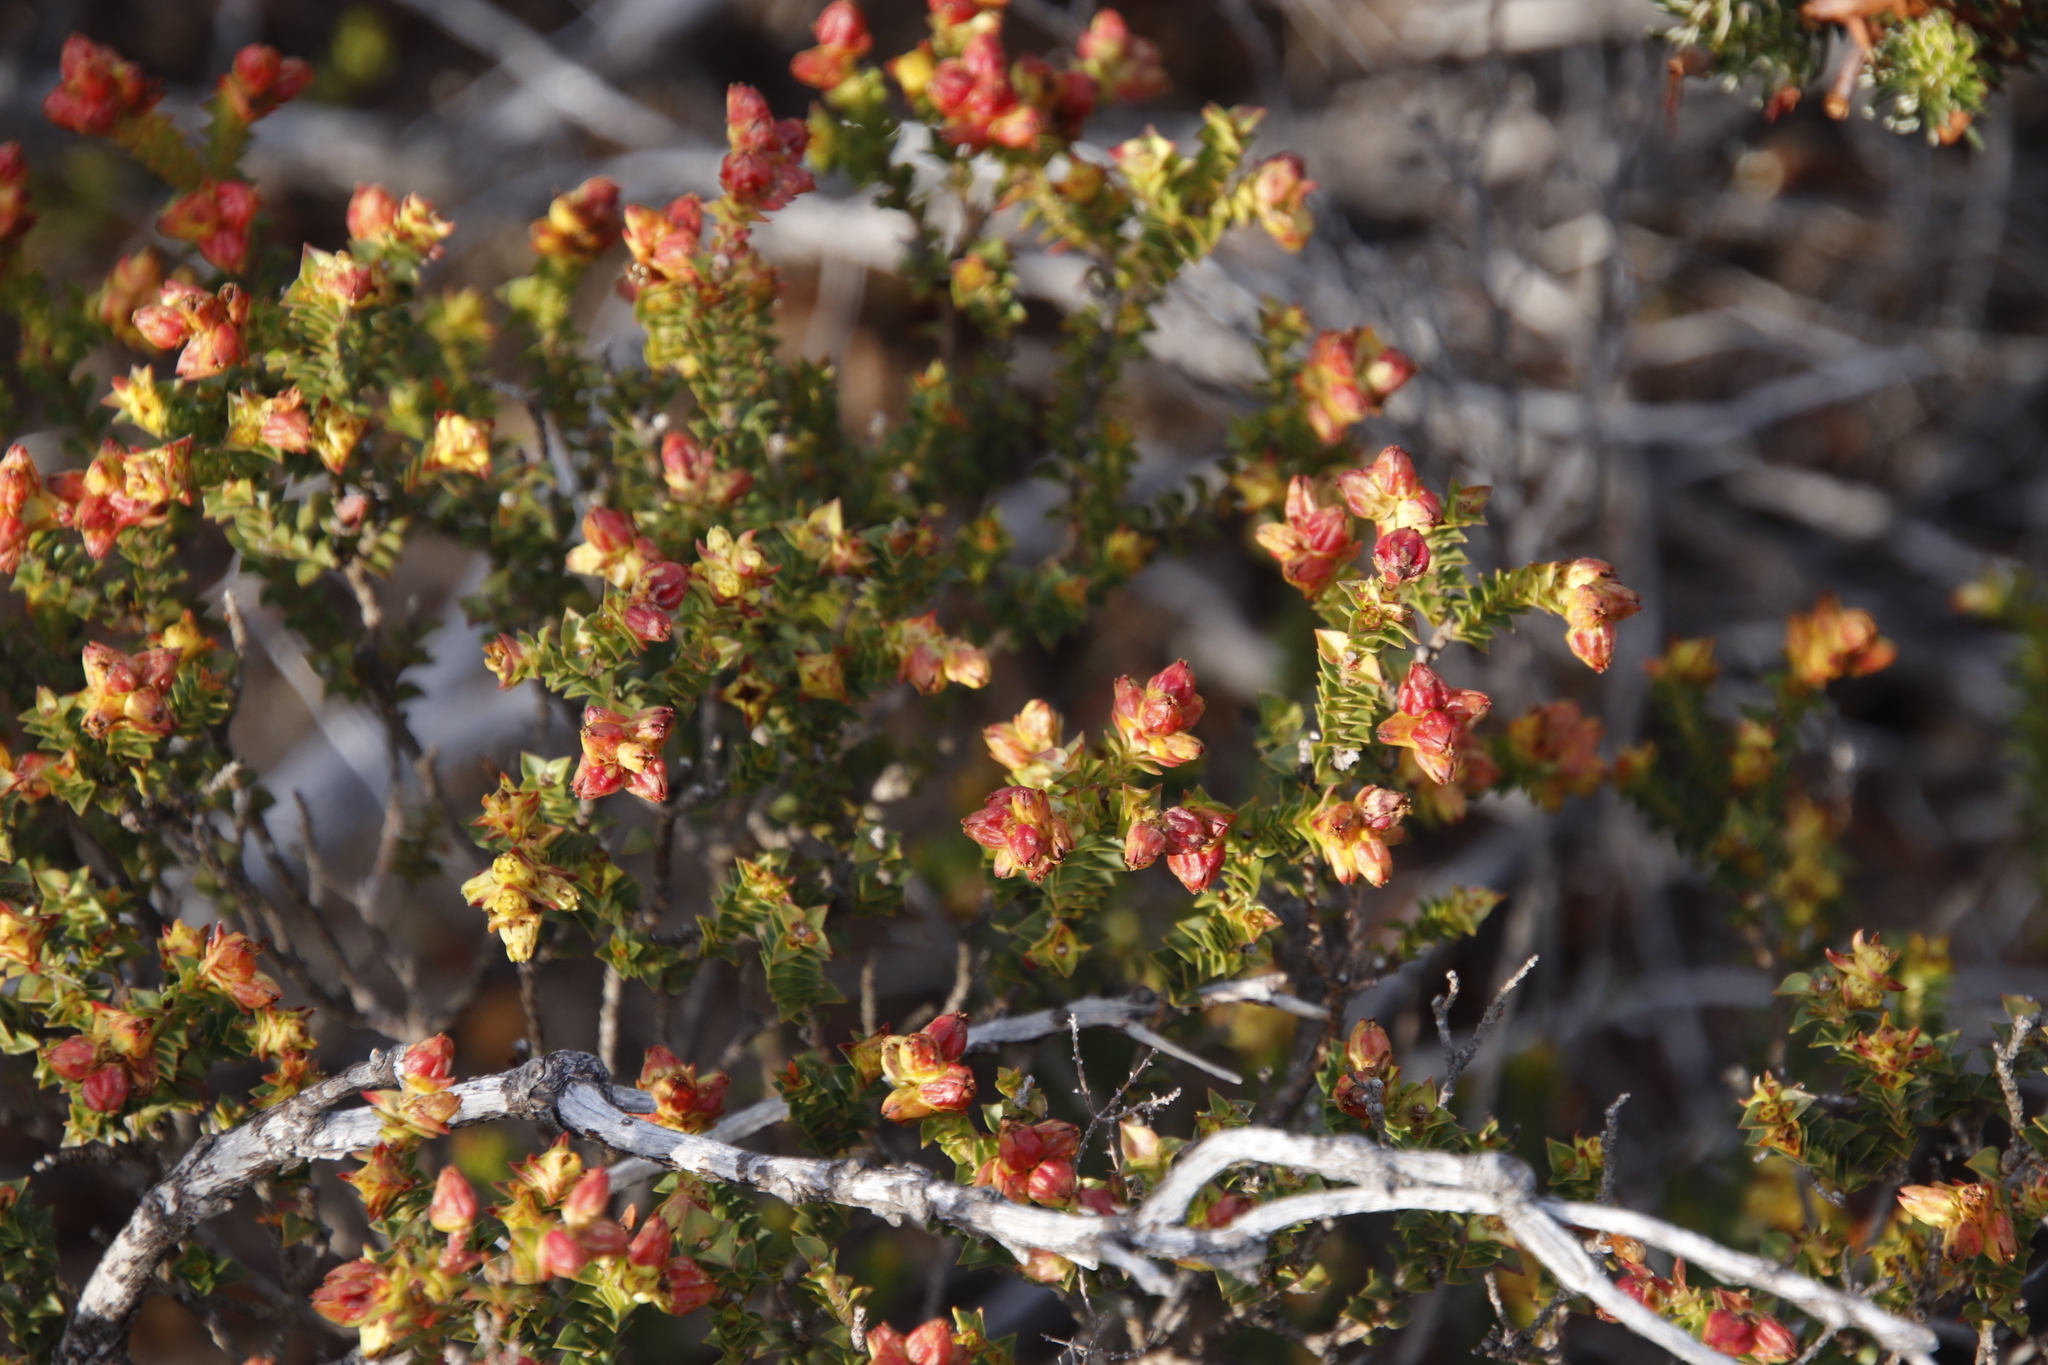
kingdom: Plantae
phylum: Tracheophyta
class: Magnoliopsida
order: Myrtales
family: Penaeaceae
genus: Penaea
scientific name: Penaea mucronata
